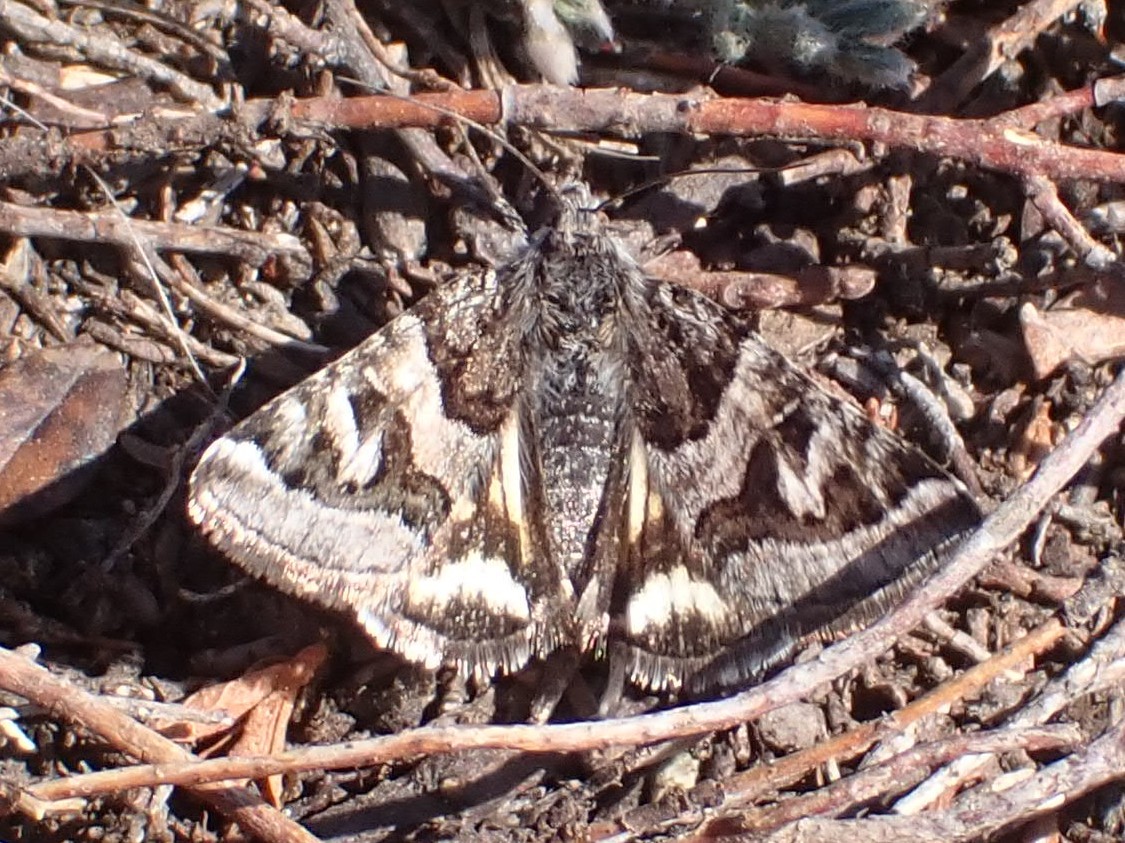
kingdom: Animalia
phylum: Arthropoda
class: Insecta
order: Lepidoptera
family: Erebidae
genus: Drasteria
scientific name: Drasteria petricola
